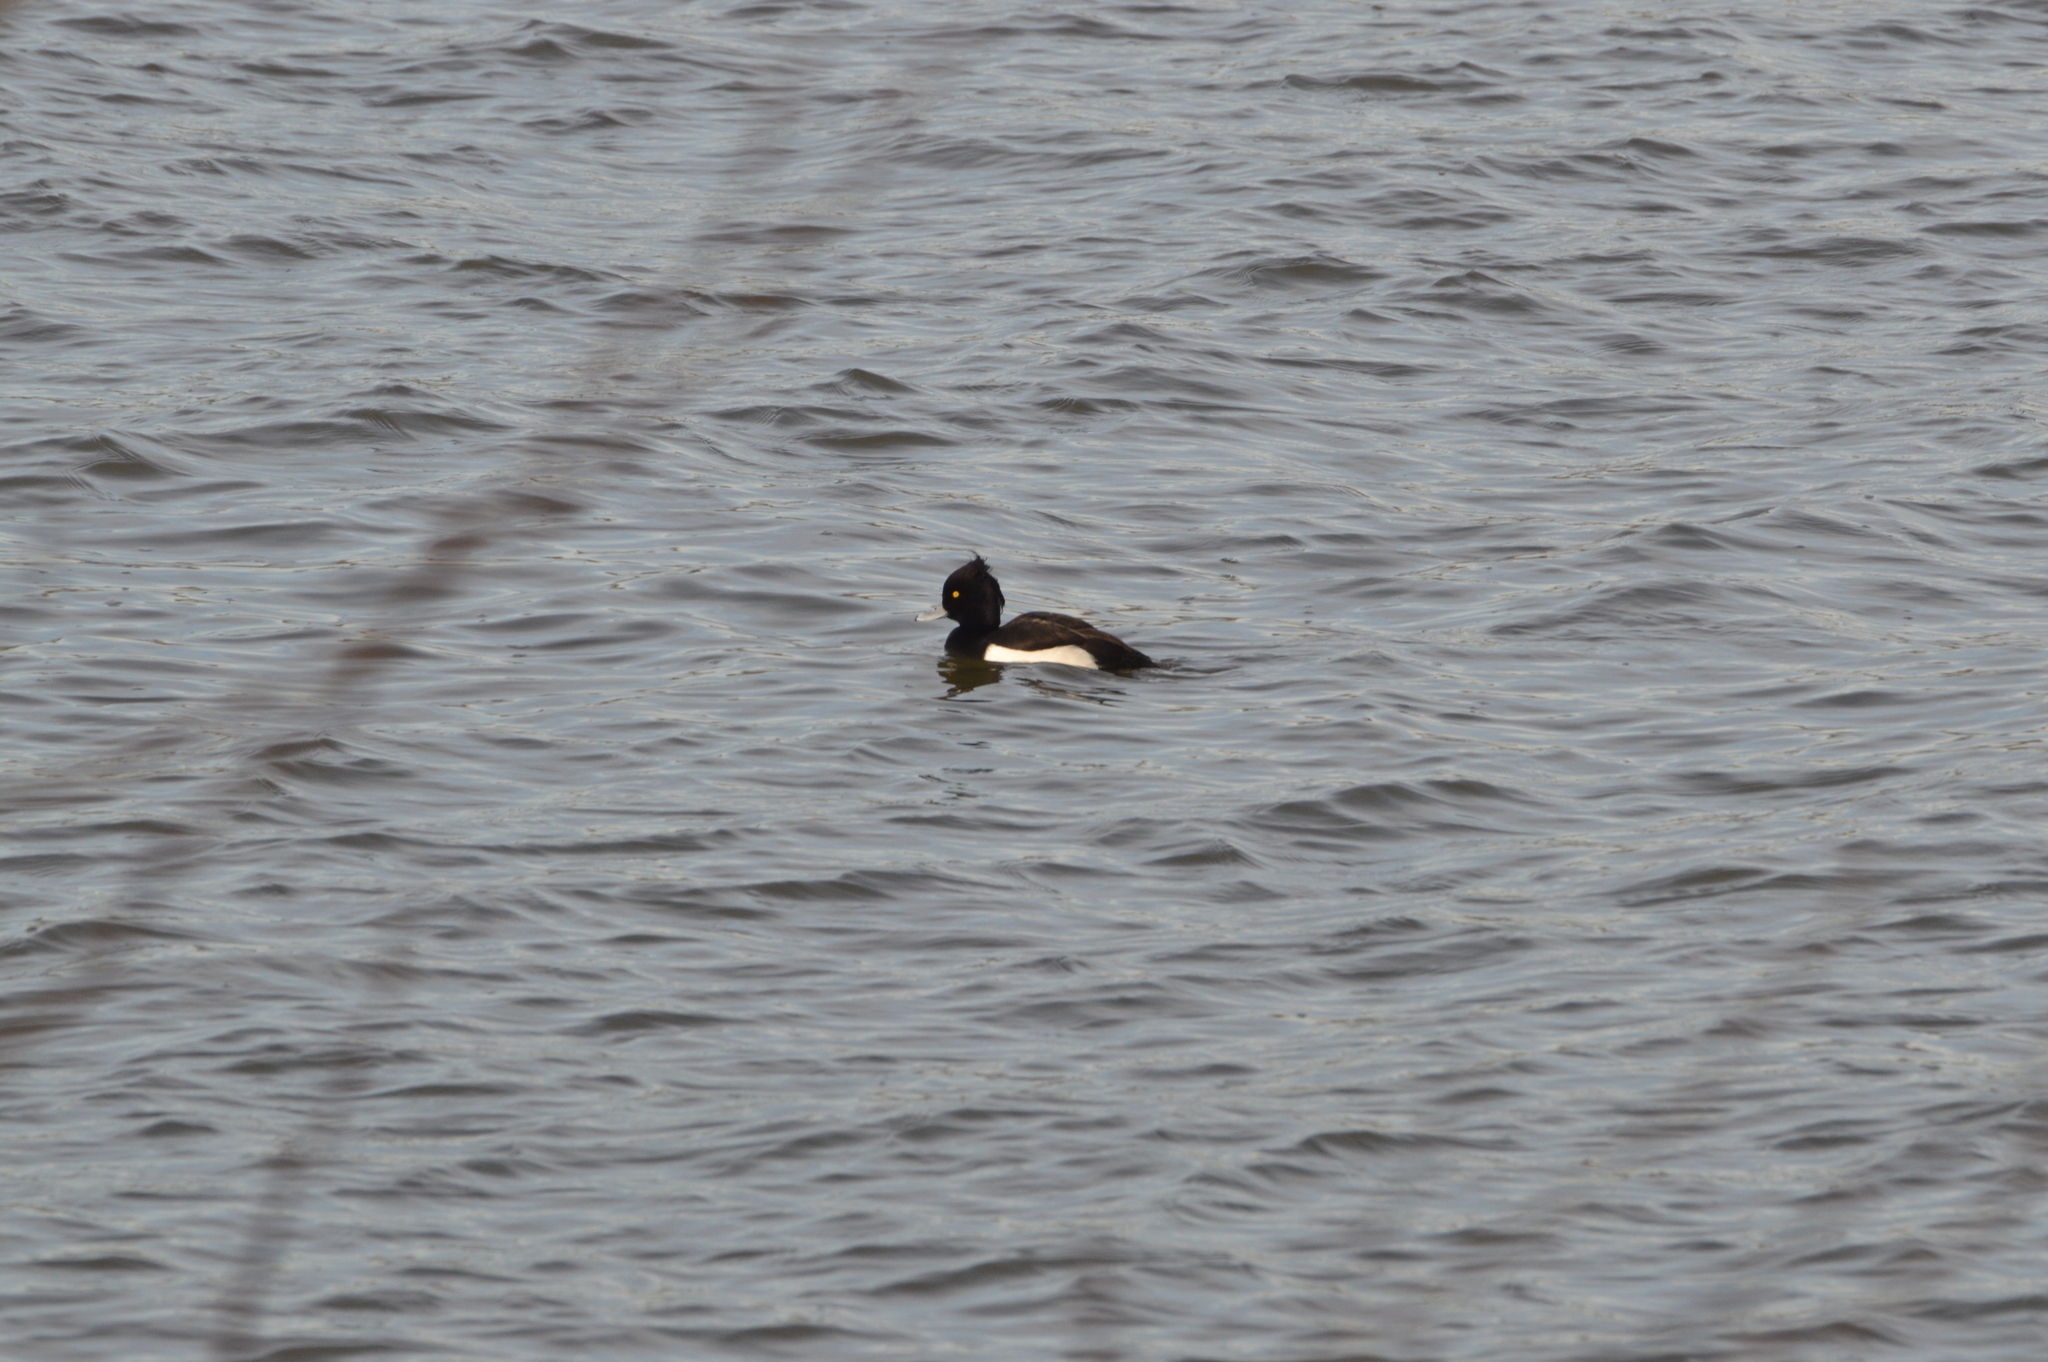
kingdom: Animalia
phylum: Chordata
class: Aves
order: Anseriformes
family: Anatidae
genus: Aythya
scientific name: Aythya fuligula
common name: Tufted duck
